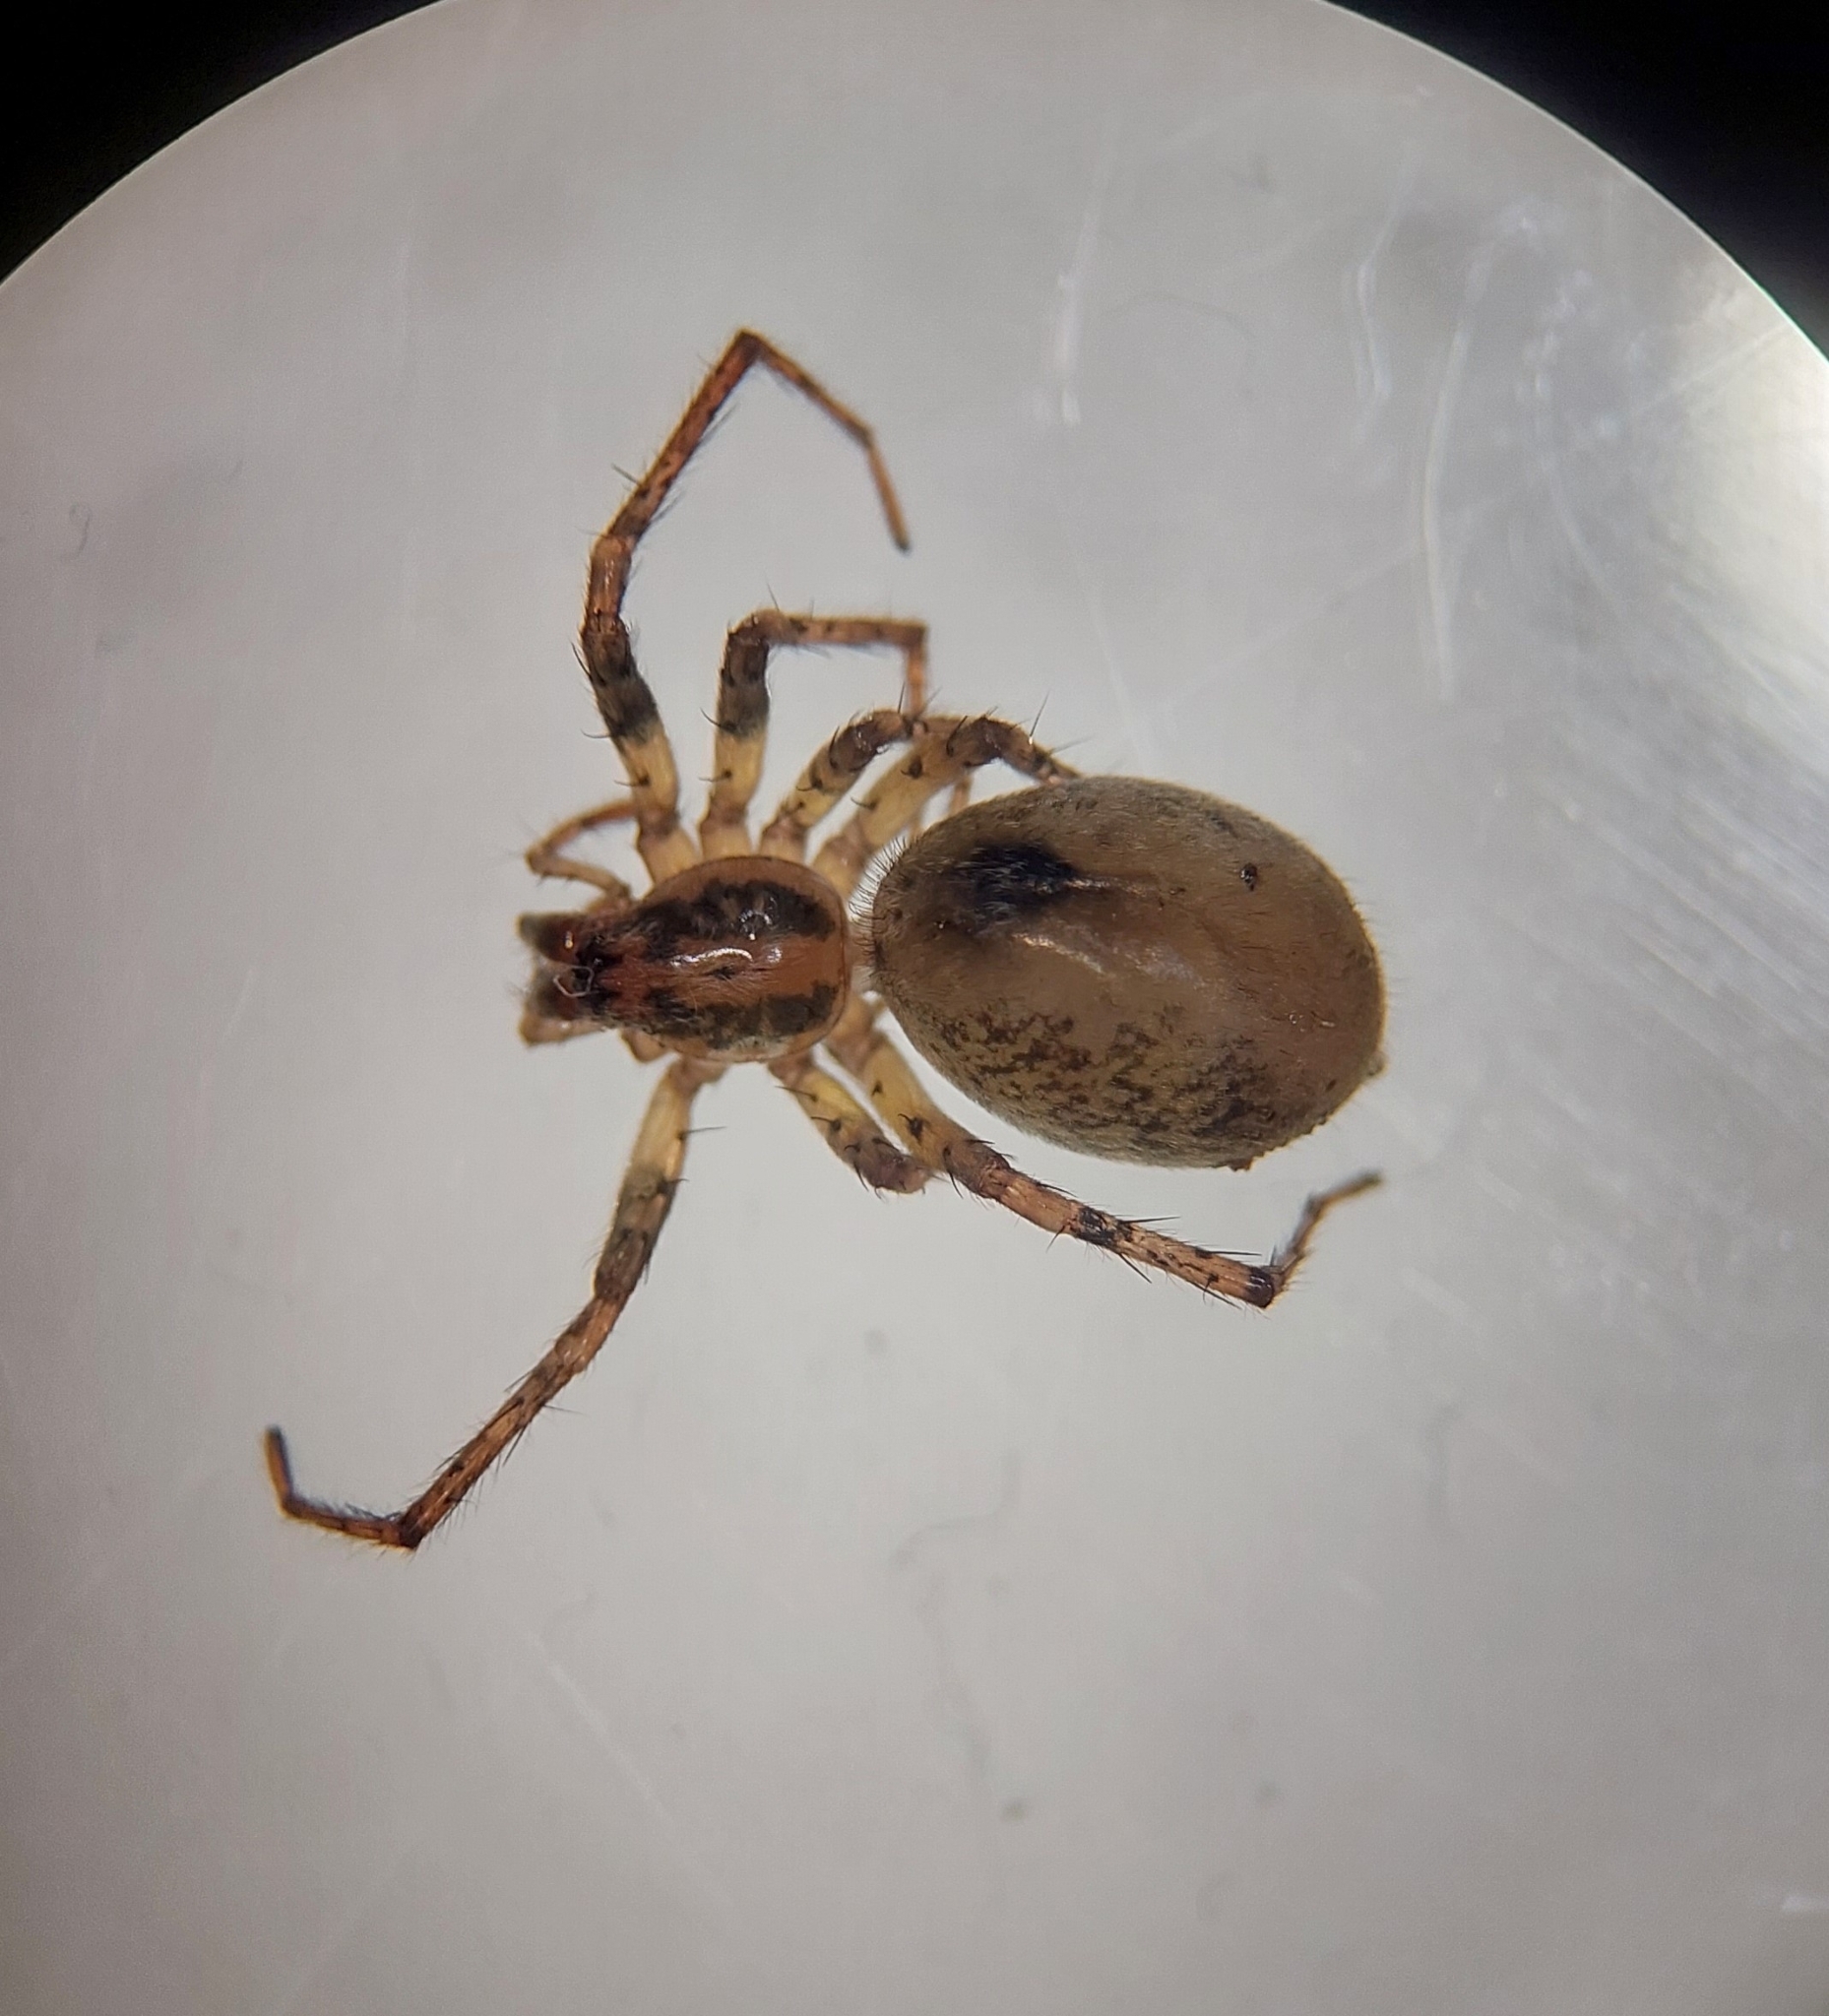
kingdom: Animalia
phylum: Arthropoda
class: Arachnida
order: Araneae
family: Anyphaenidae
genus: Anyphaena
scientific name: Anyphaena accentuata
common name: Buzzing spider
